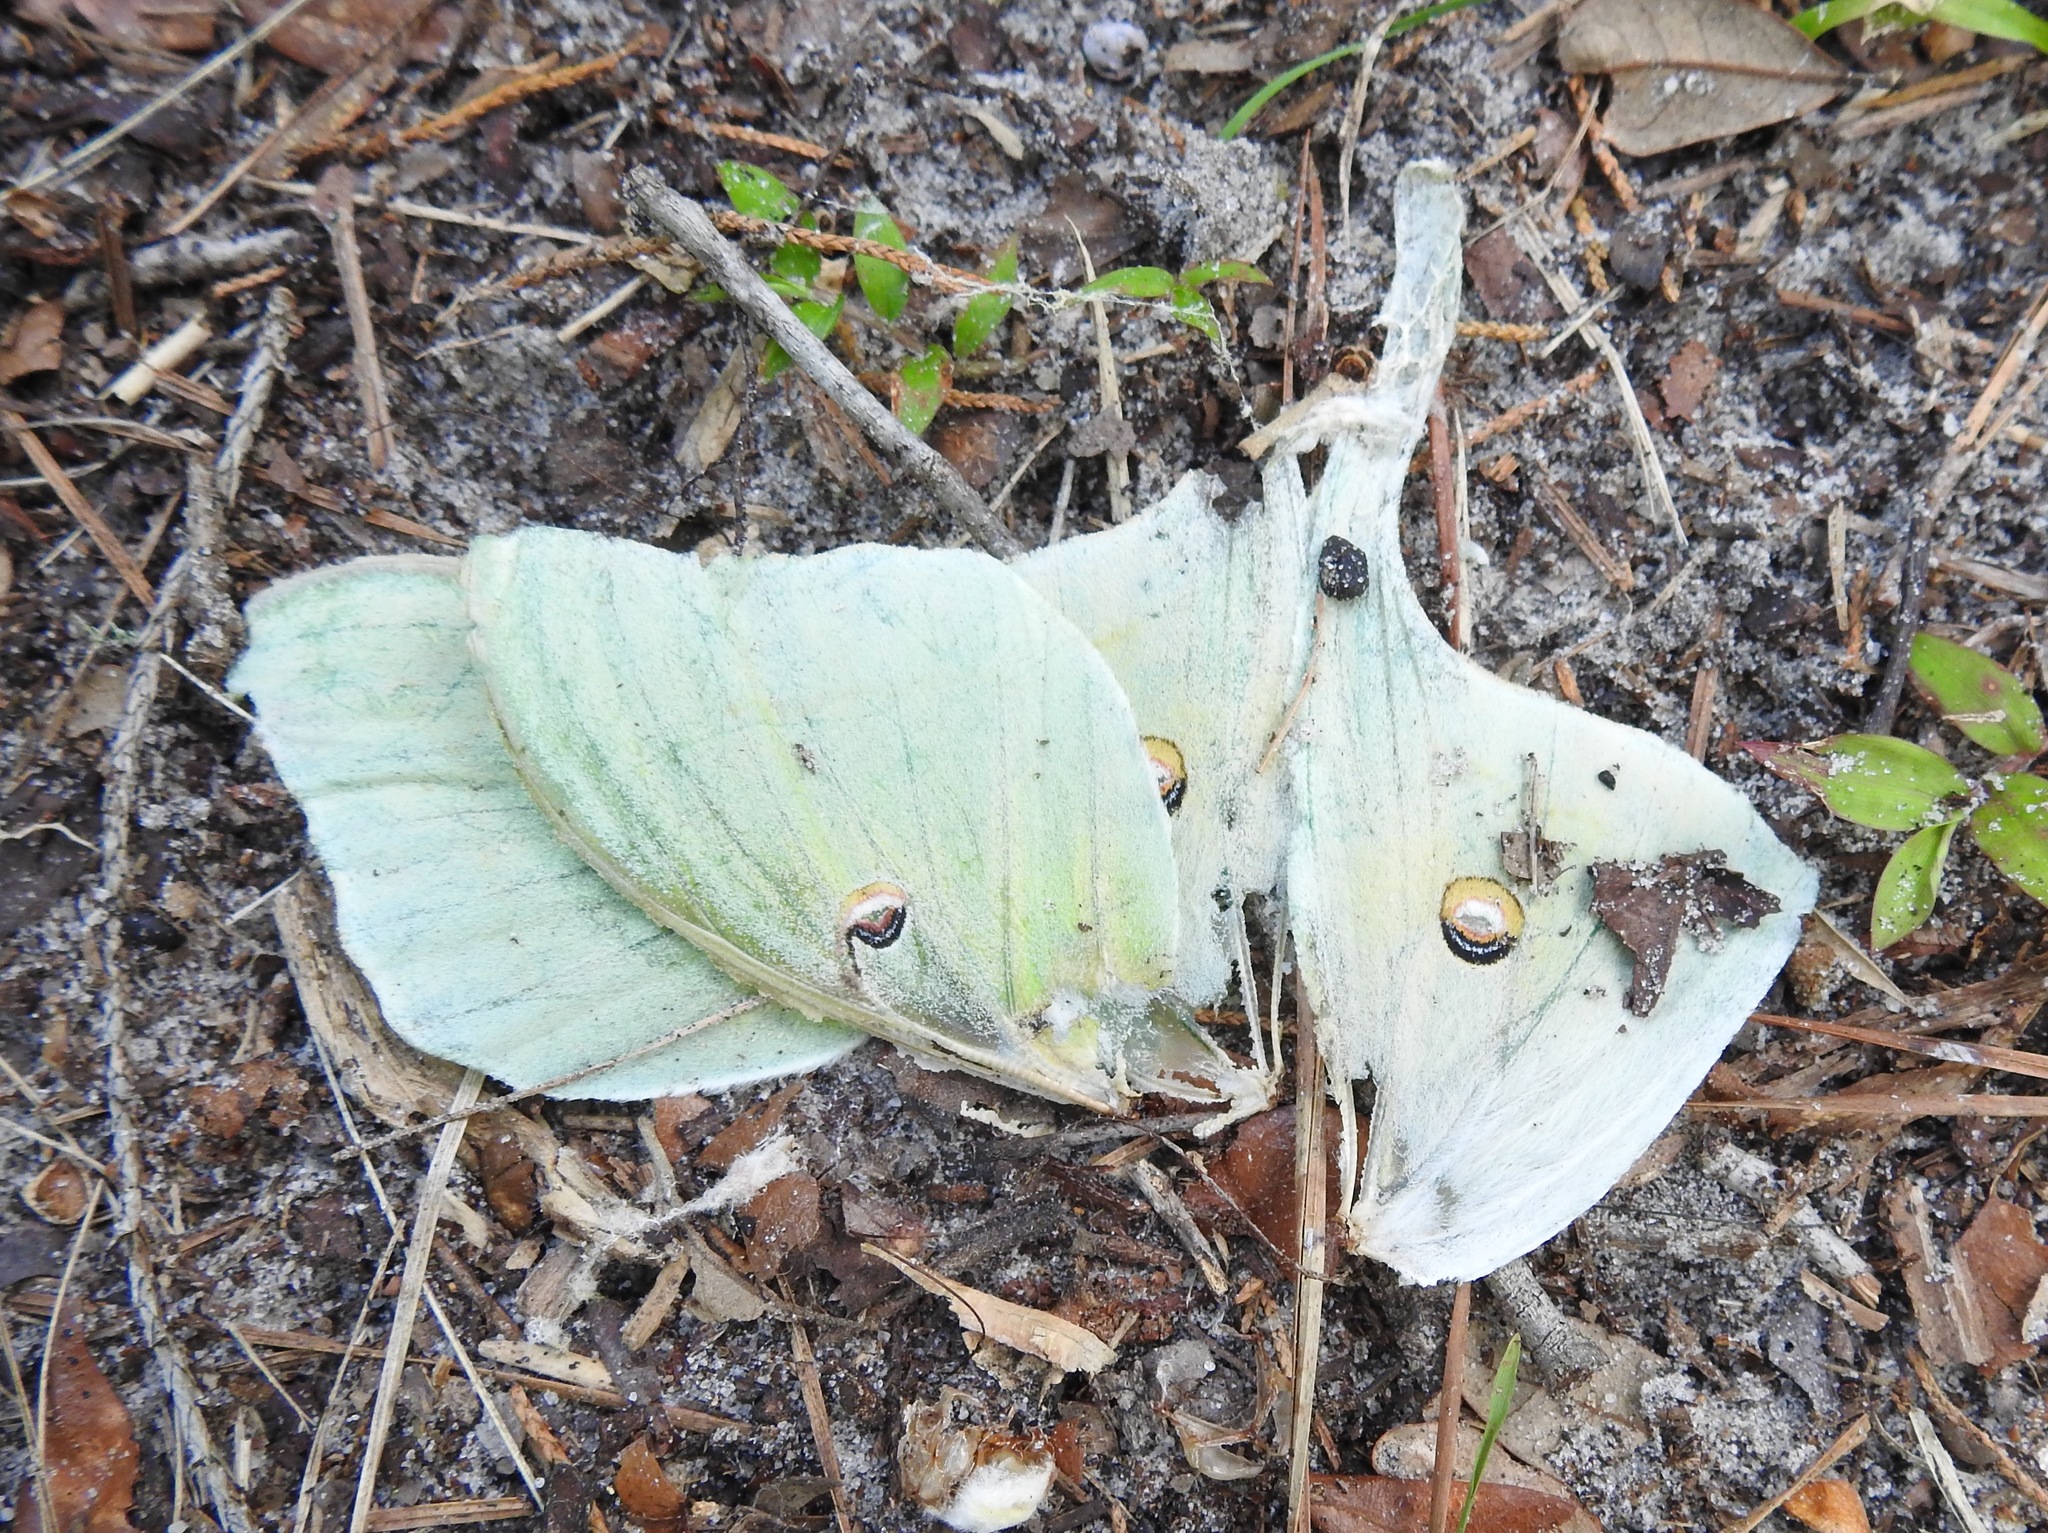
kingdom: Animalia
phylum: Arthropoda
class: Insecta
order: Lepidoptera
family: Saturniidae
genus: Actias
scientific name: Actias luna
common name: Luna moth
